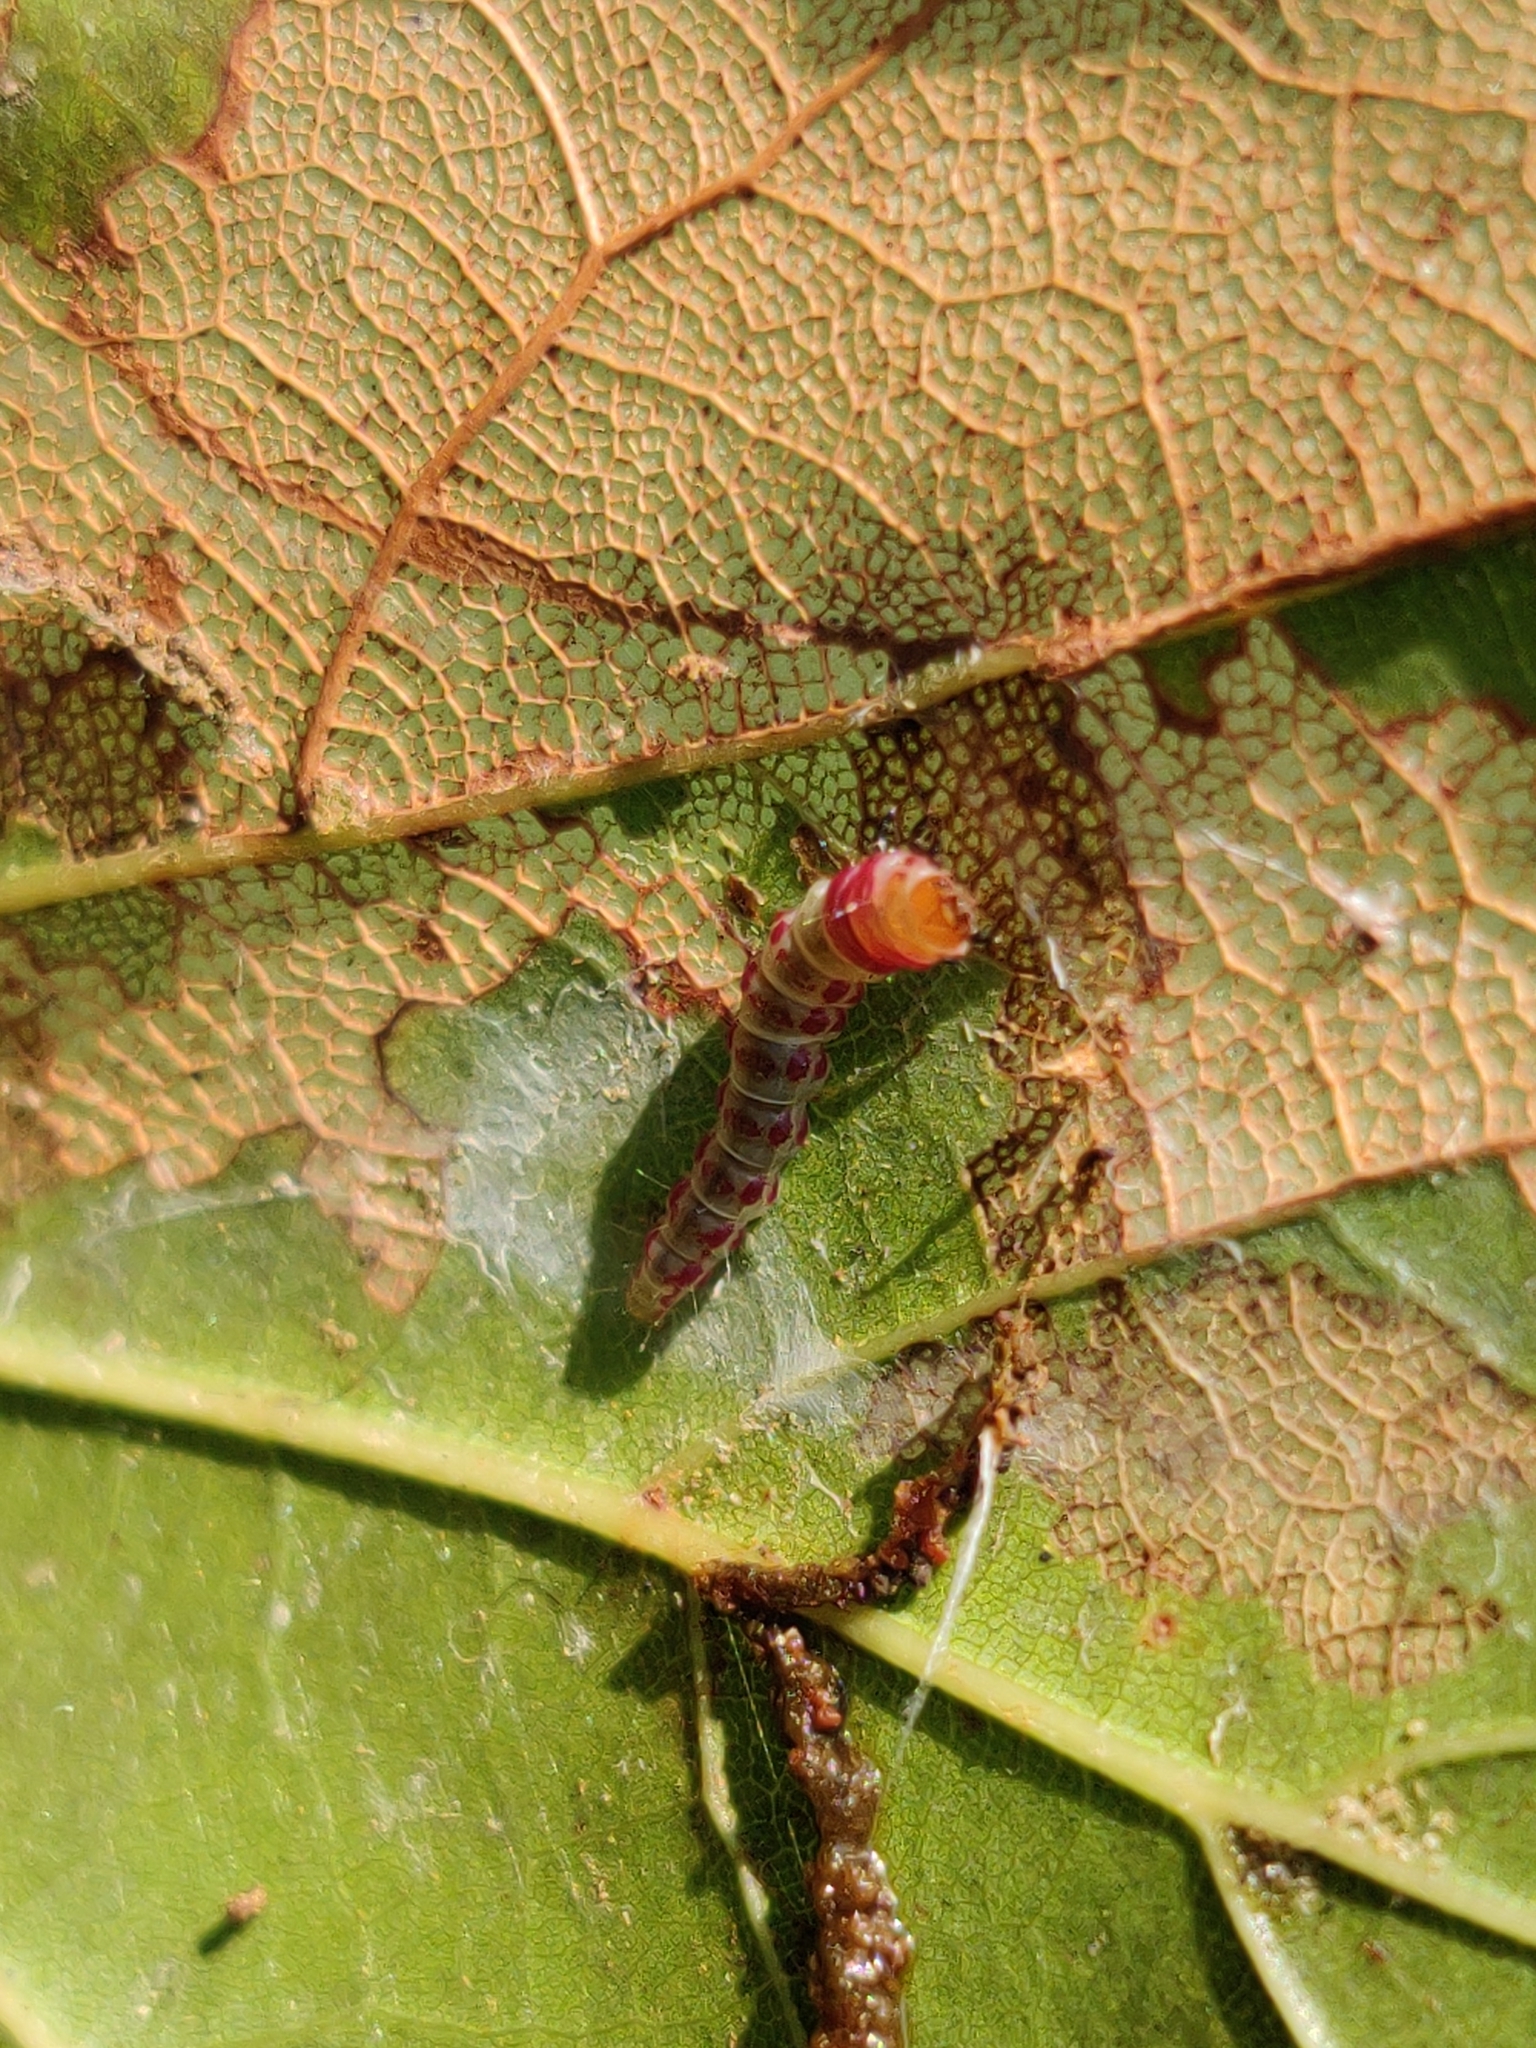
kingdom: Animalia
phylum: Arthropoda
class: Insecta
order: Lepidoptera
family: Depressariidae
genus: Rectiostoma
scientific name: Rectiostoma xanthobasis
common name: Yellow-vested moth
